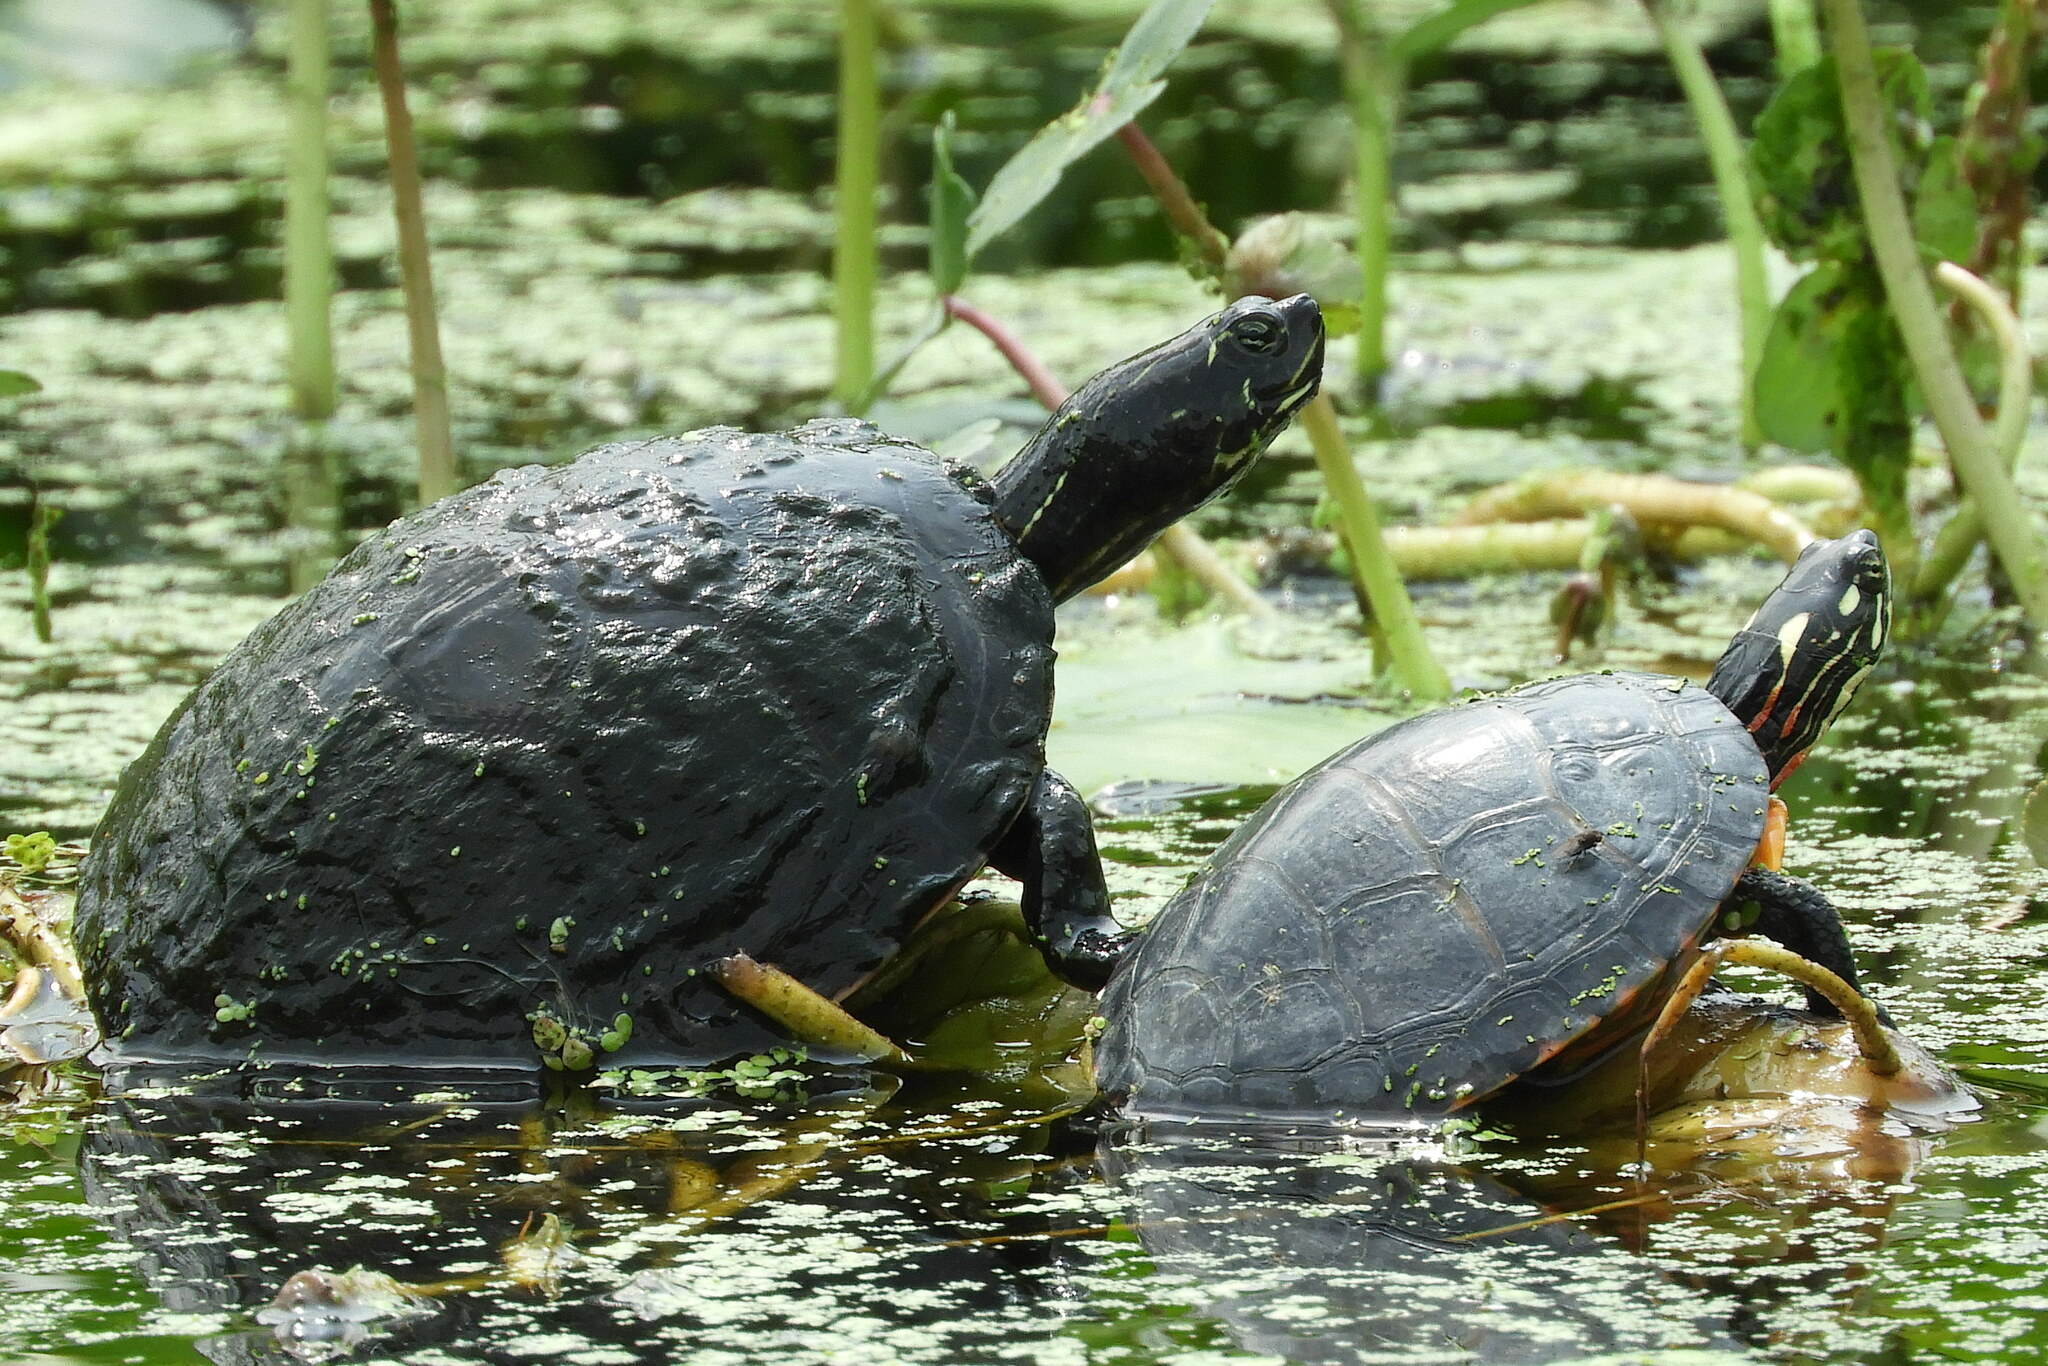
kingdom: Animalia
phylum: Chordata
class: Testudines
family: Emydidae
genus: Pseudemys
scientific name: Pseudemys rubriventris
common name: American red-bellied turtle
